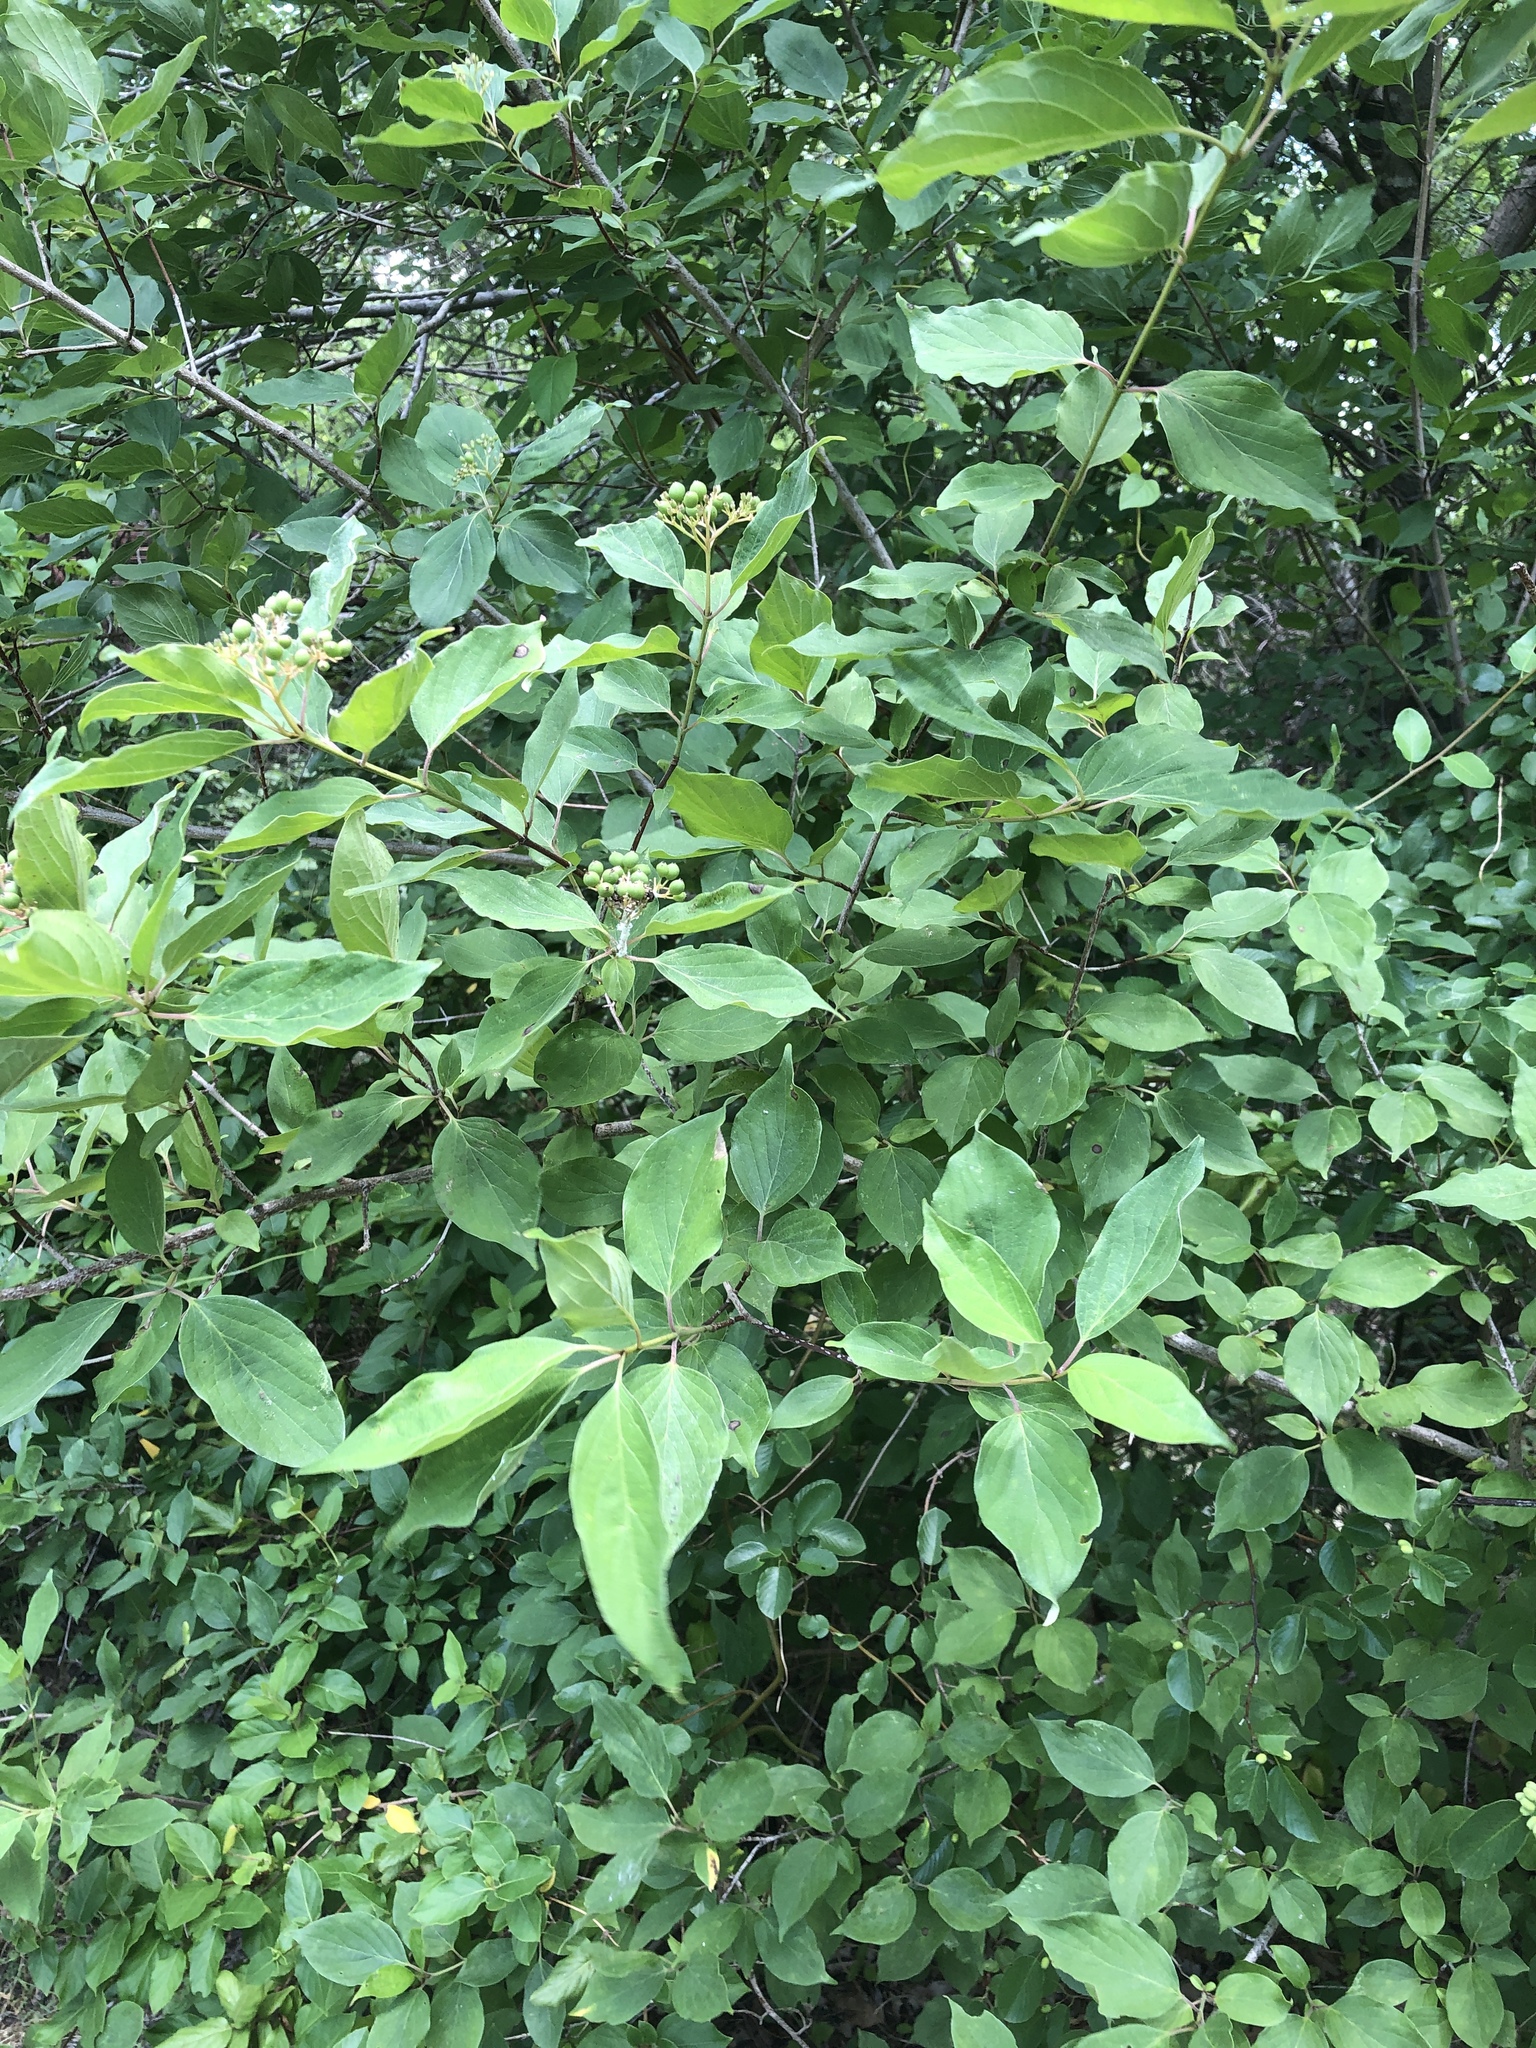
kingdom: Plantae
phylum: Tracheophyta
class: Magnoliopsida
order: Cornales
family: Cornaceae
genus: Cornus
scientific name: Cornus drummondii
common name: Rough-leaf dogwood
